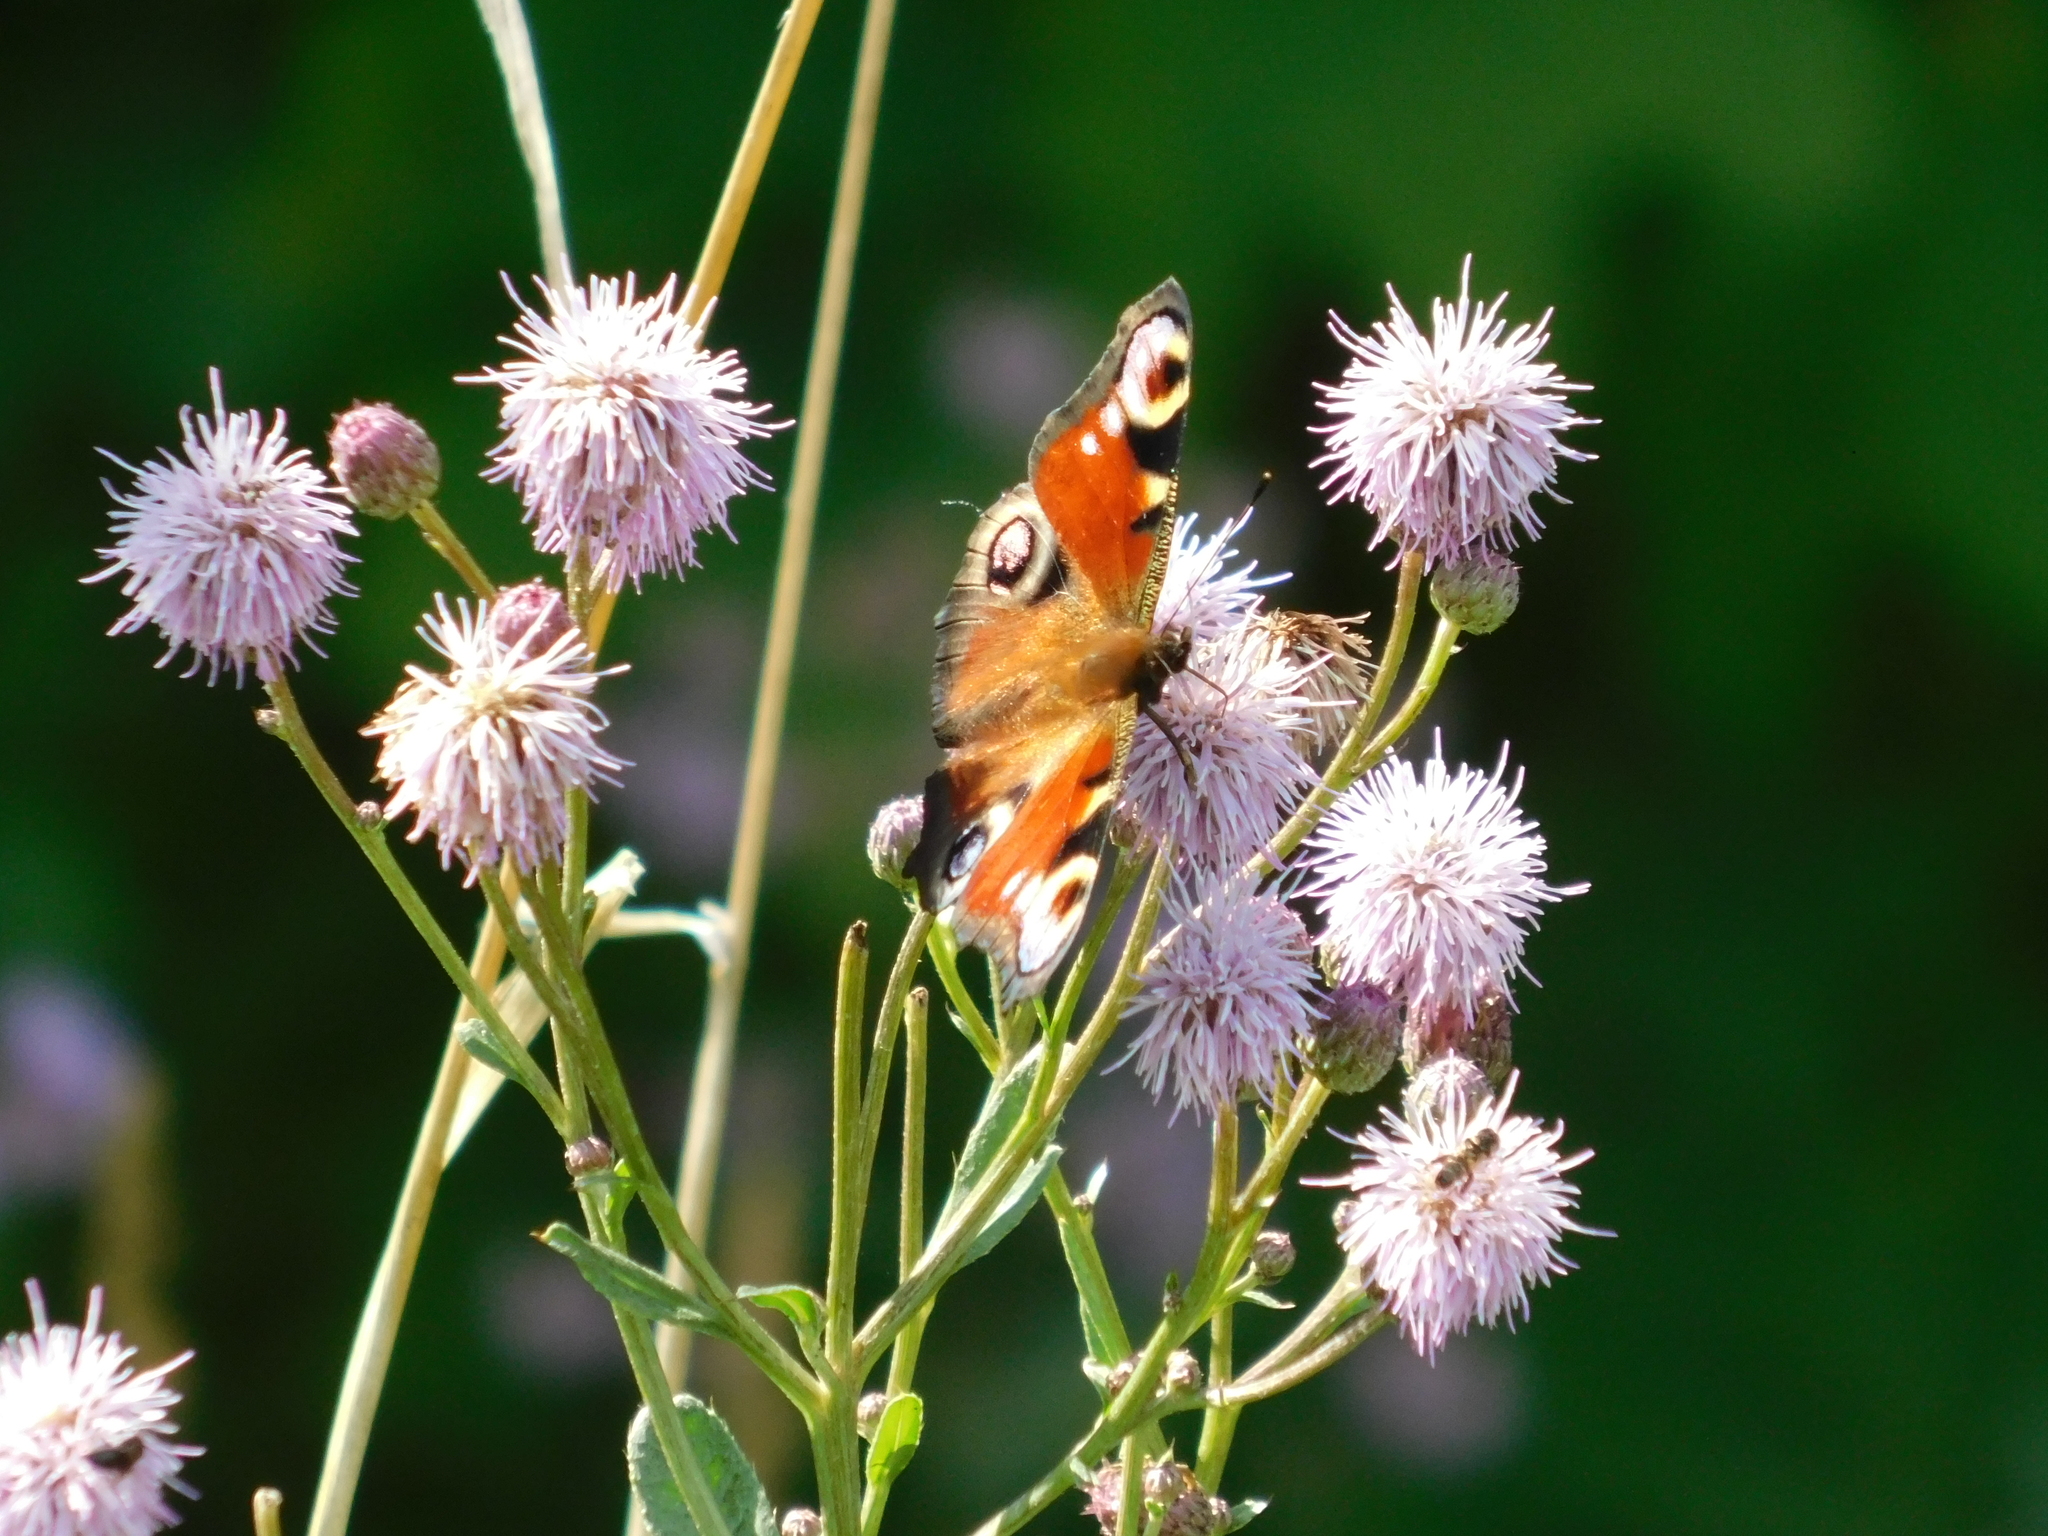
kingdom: Animalia
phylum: Arthropoda
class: Insecta
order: Lepidoptera
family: Nymphalidae
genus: Aglais
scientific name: Aglais io
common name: Peacock
